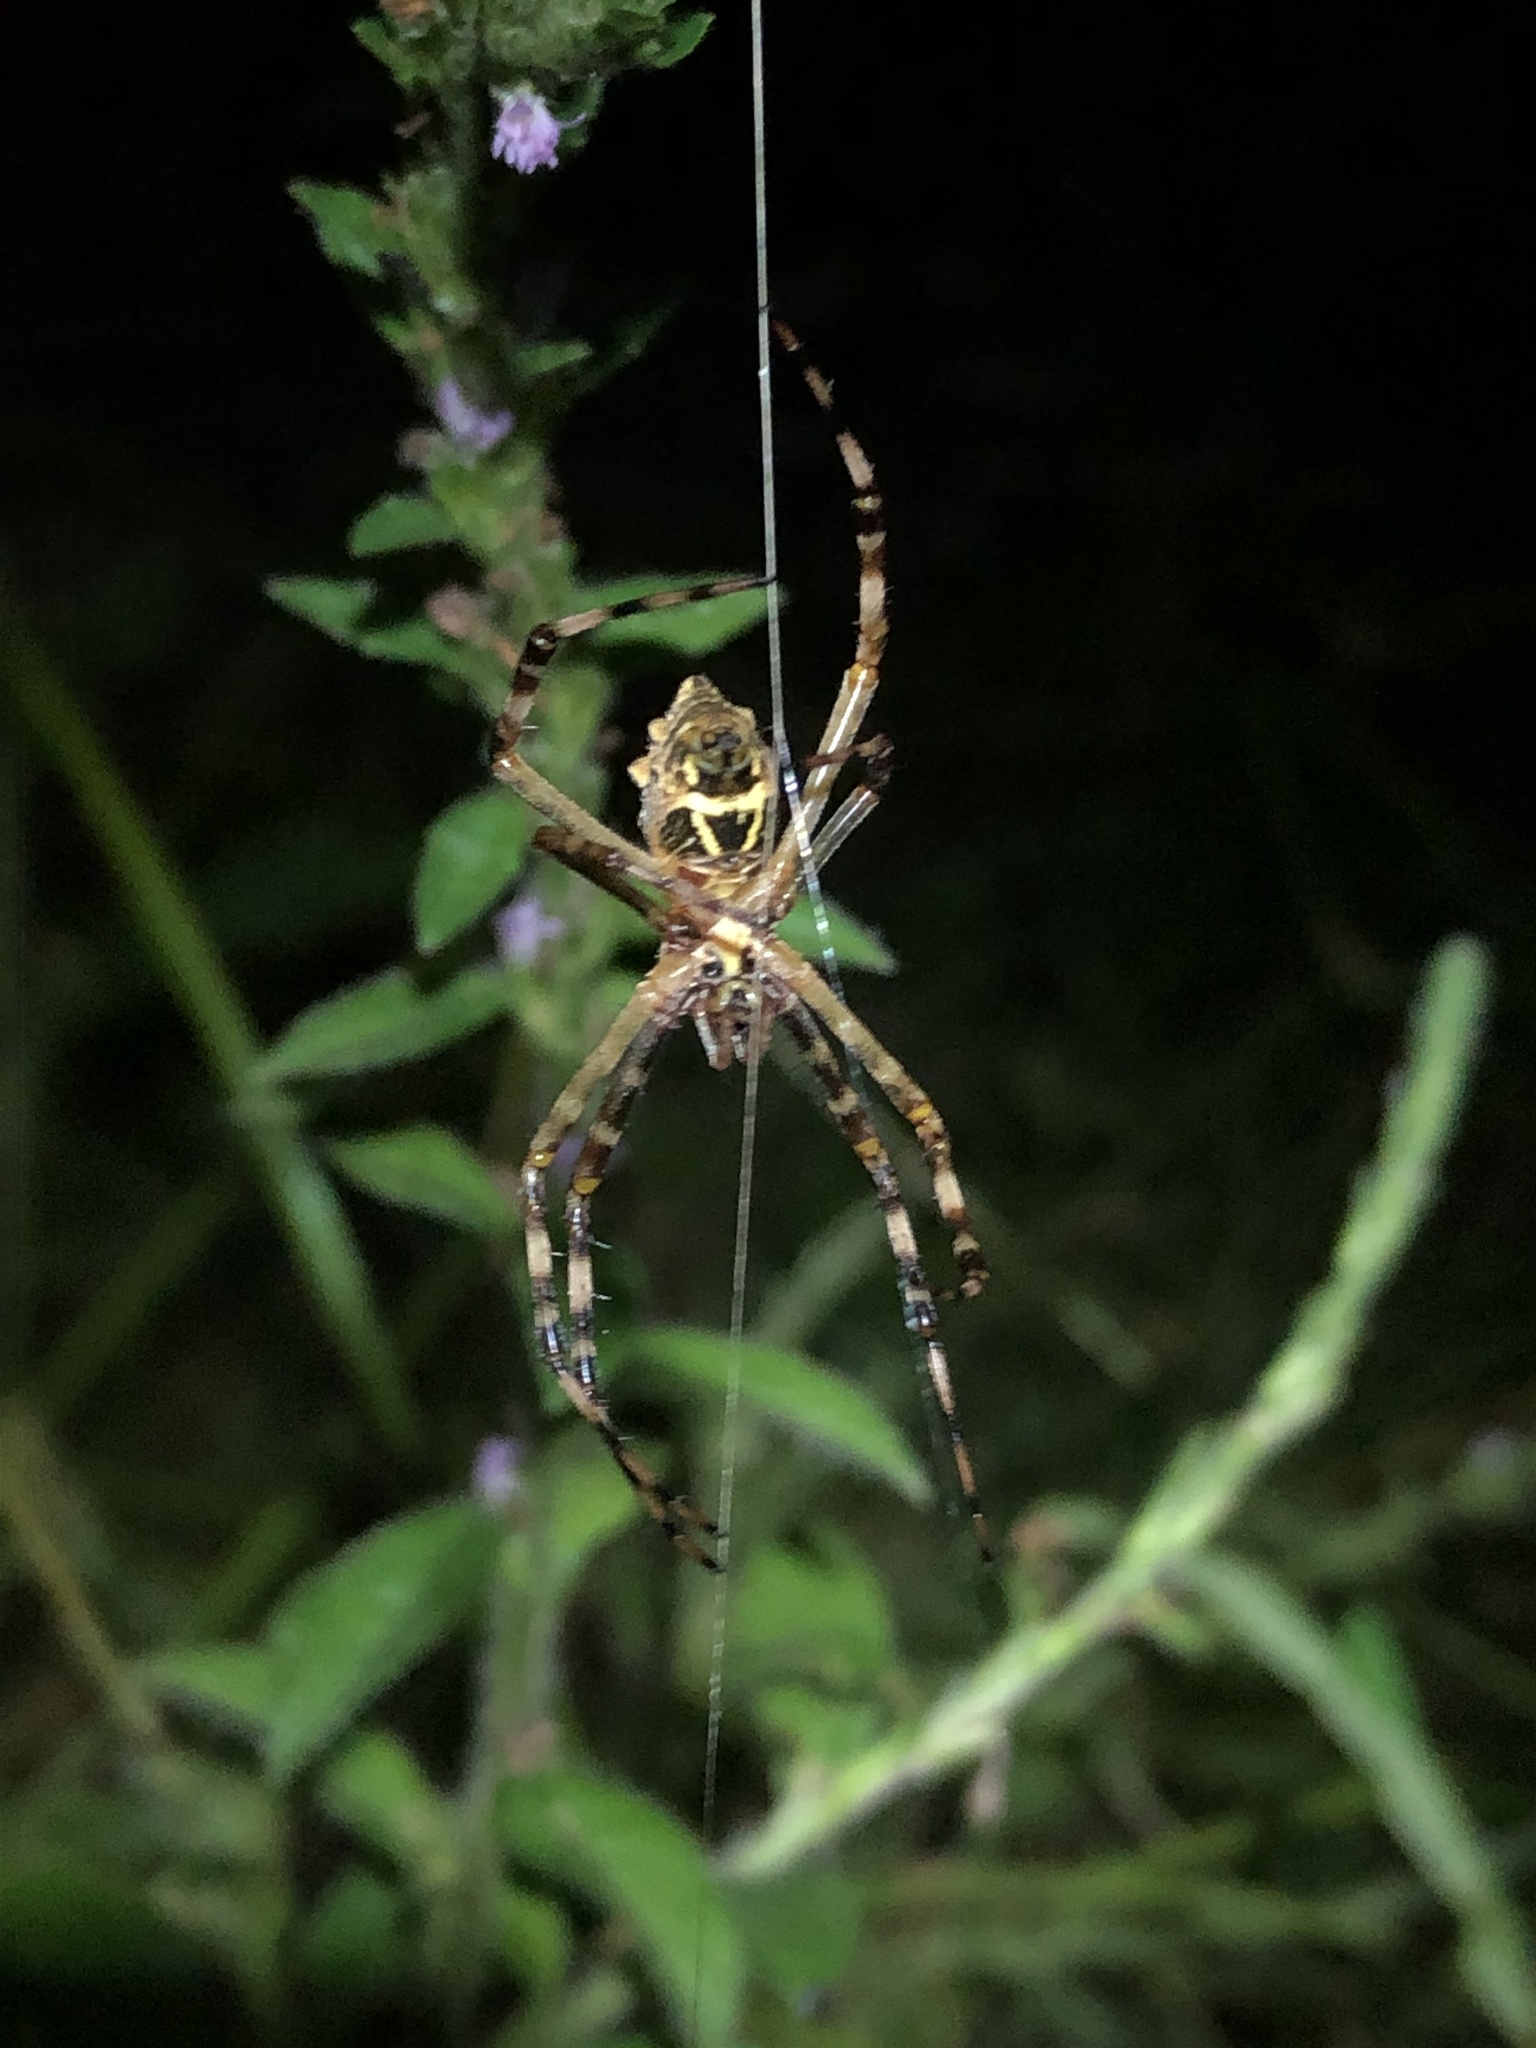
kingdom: Animalia
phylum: Arthropoda
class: Arachnida
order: Araneae
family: Araneidae
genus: Argiope
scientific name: Argiope argentata
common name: Orb weavers
